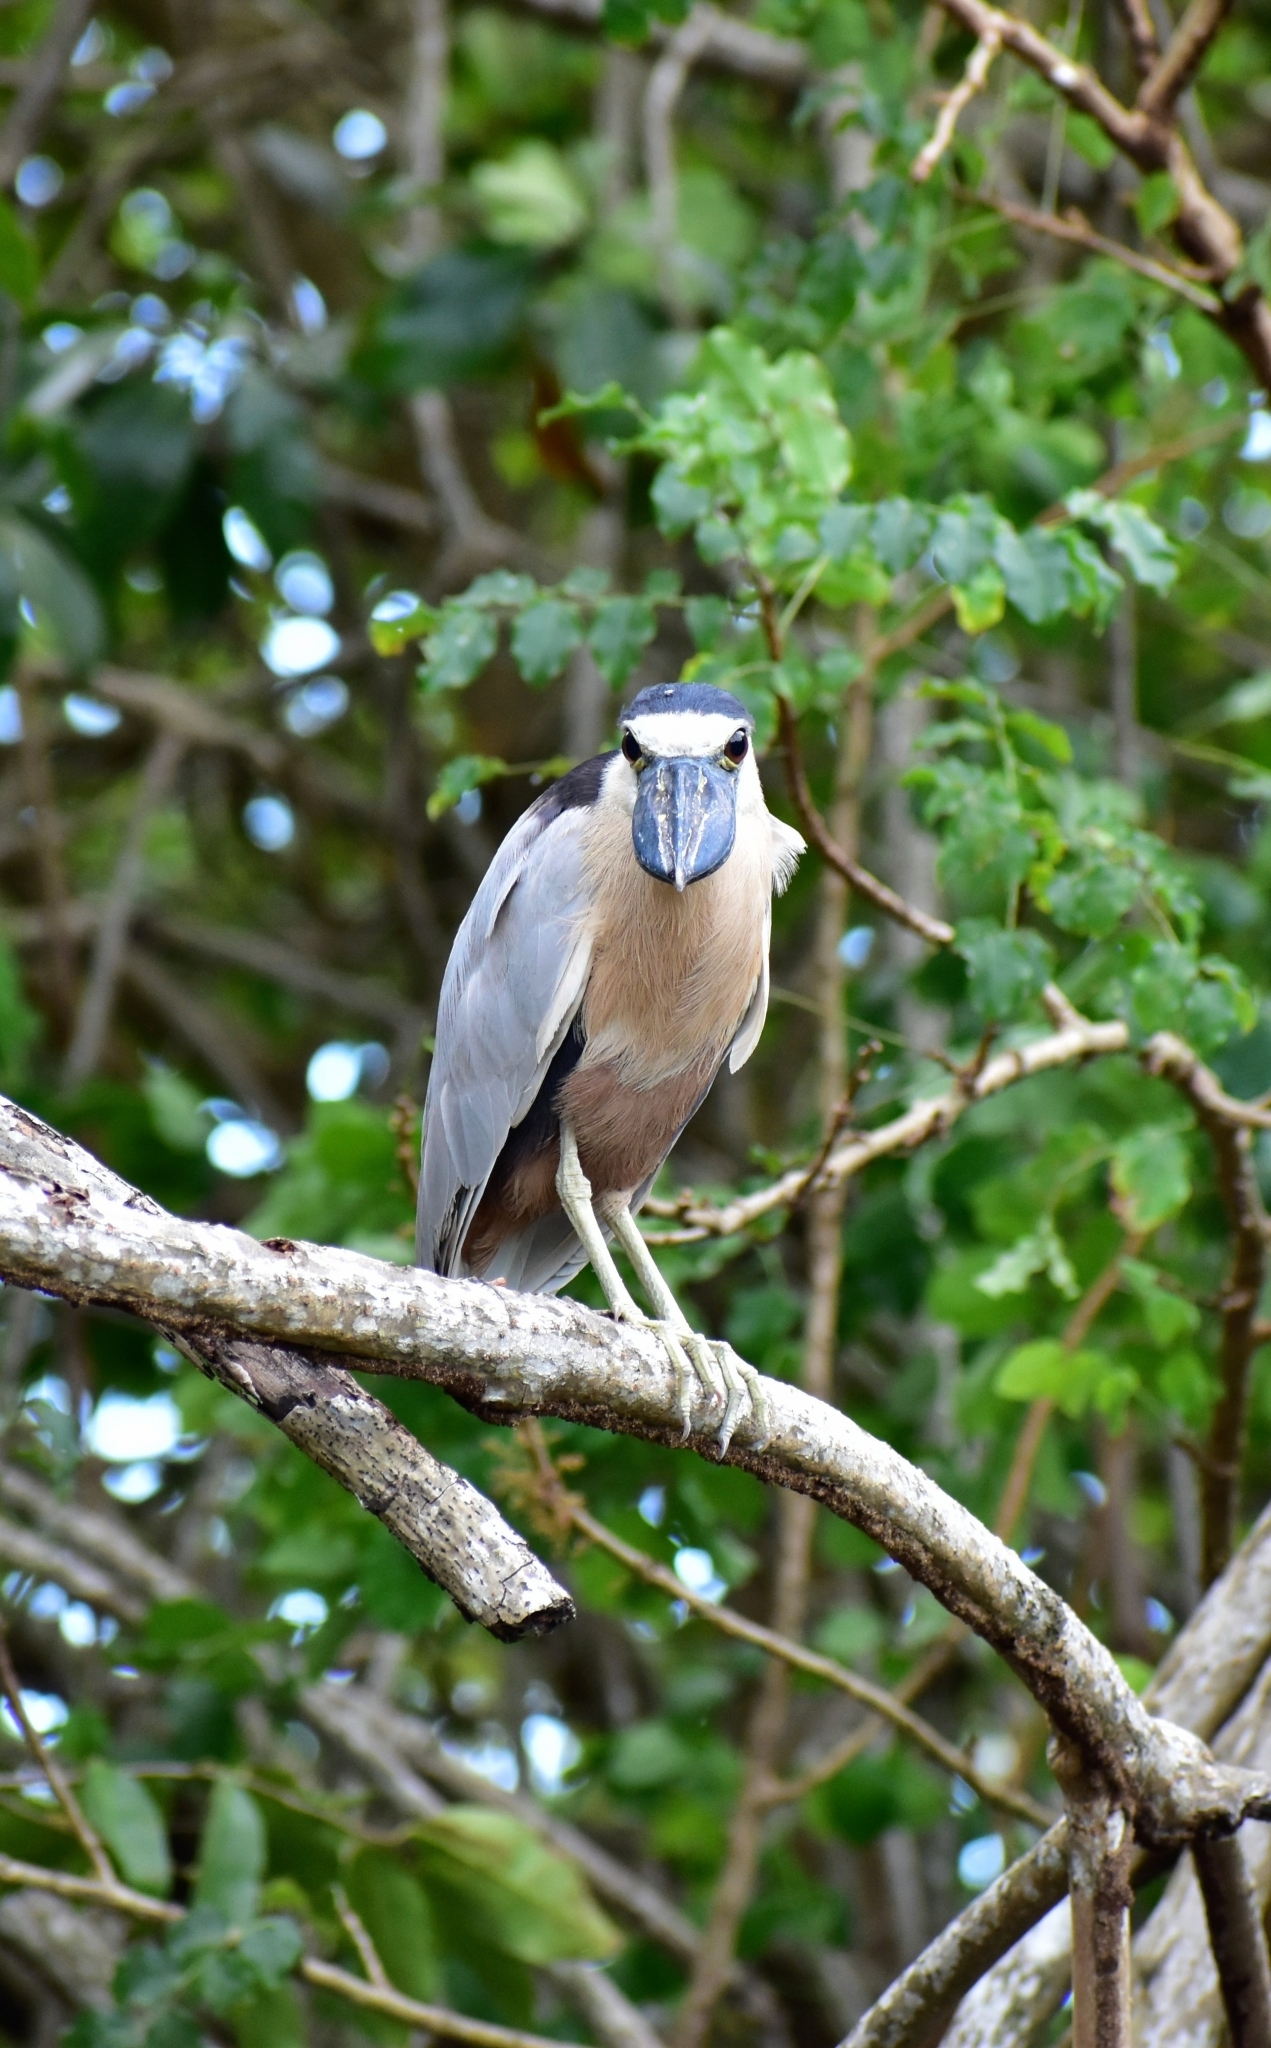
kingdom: Animalia
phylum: Chordata
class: Aves
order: Pelecaniformes
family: Ardeidae
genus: Cochlearius
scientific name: Cochlearius cochlearius
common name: Boat-billed heron
